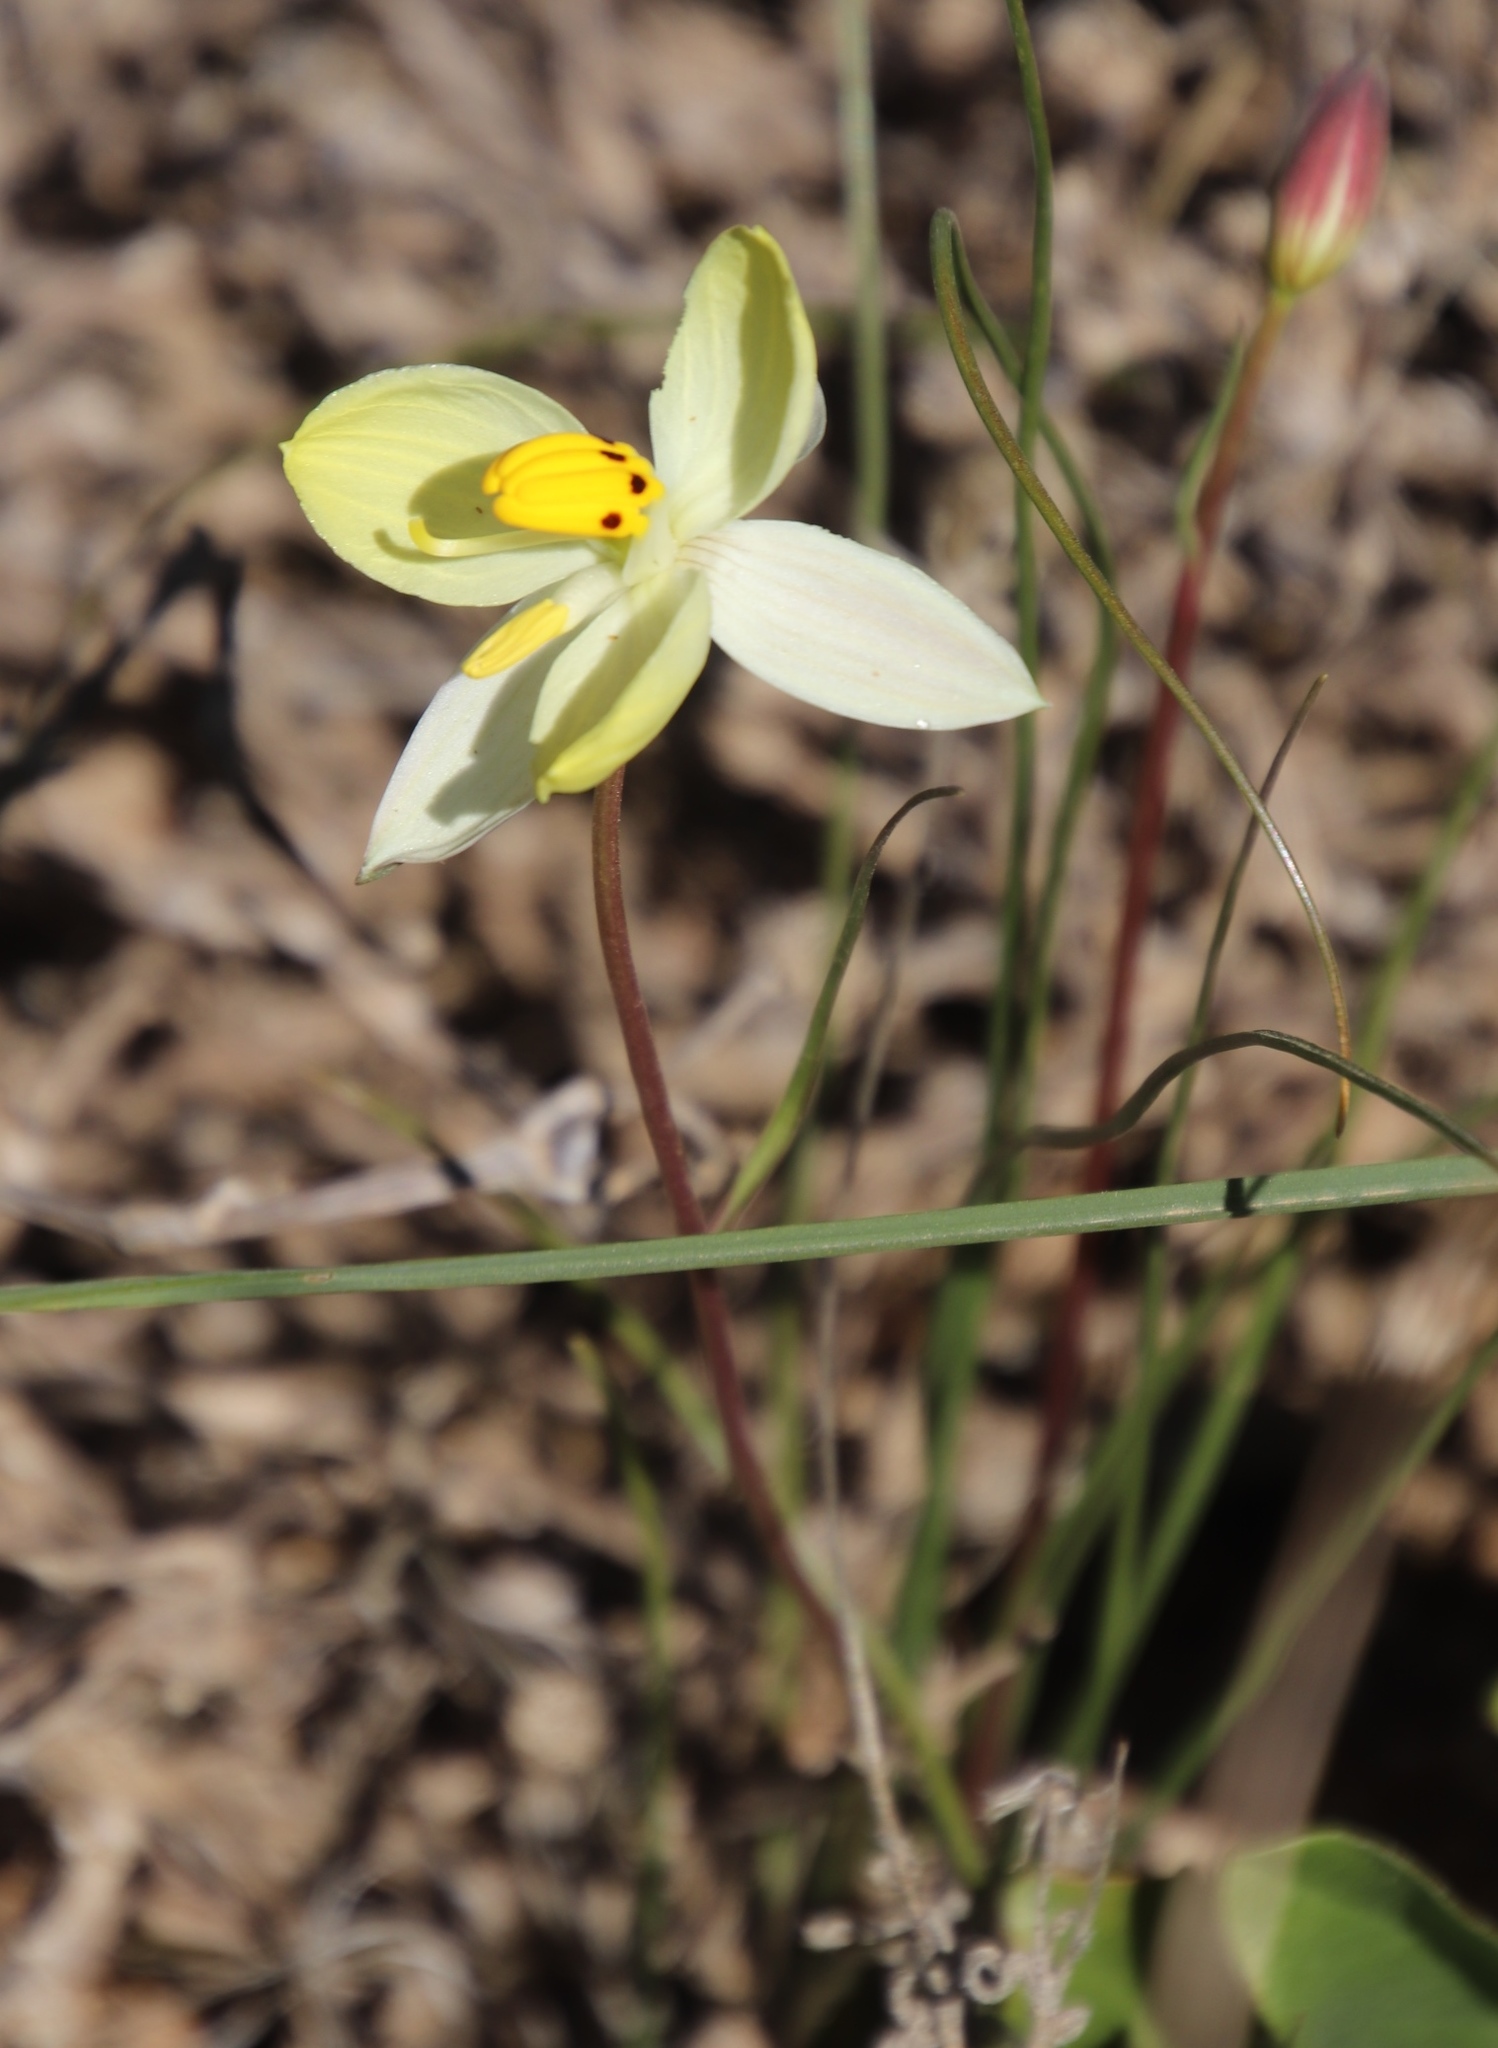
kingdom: Plantae
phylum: Tracheophyta
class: Liliopsida
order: Asparagales
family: Tecophilaeaceae
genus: Cyanella
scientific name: Cyanella alba
